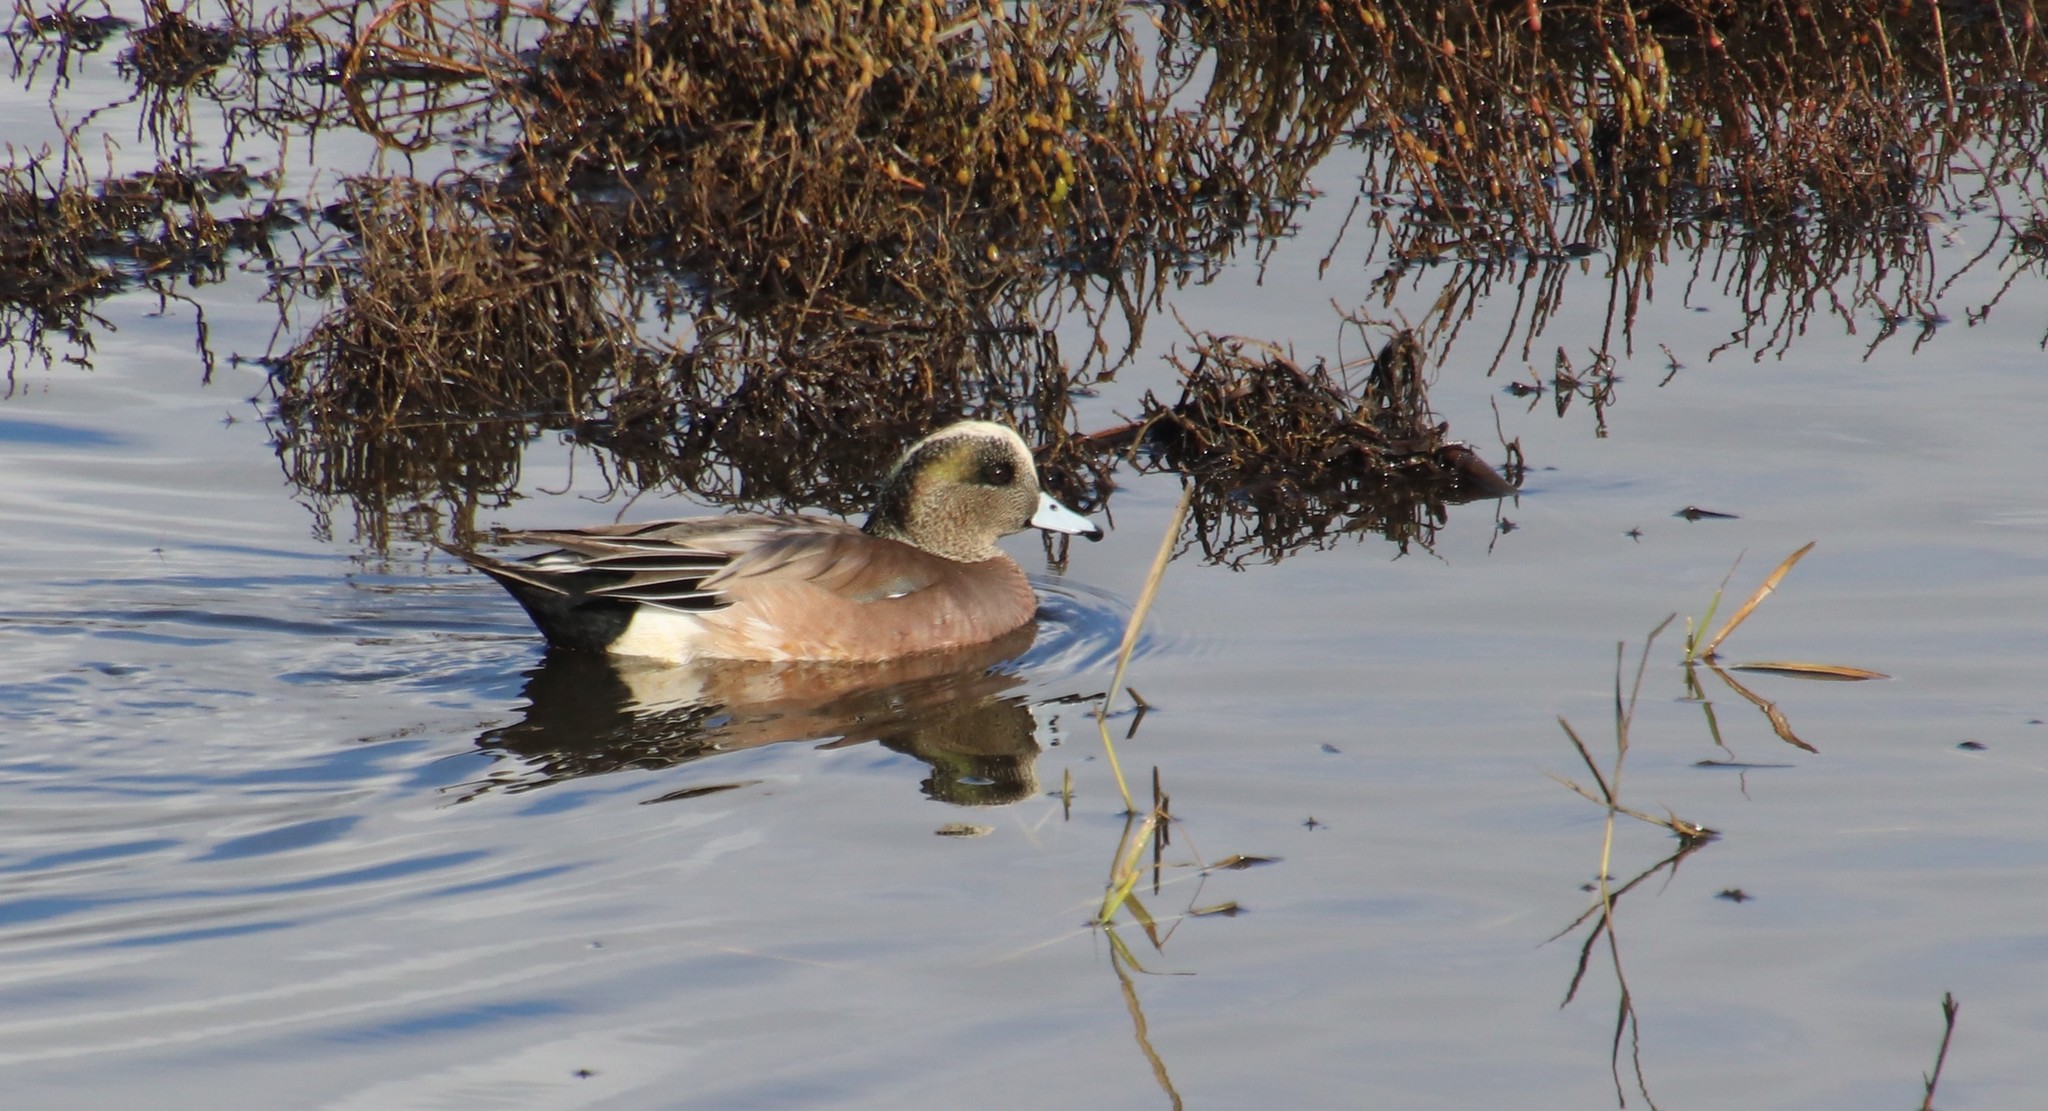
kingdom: Animalia
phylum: Chordata
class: Aves
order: Anseriformes
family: Anatidae
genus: Mareca
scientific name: Mareca americana
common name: American wigeon
